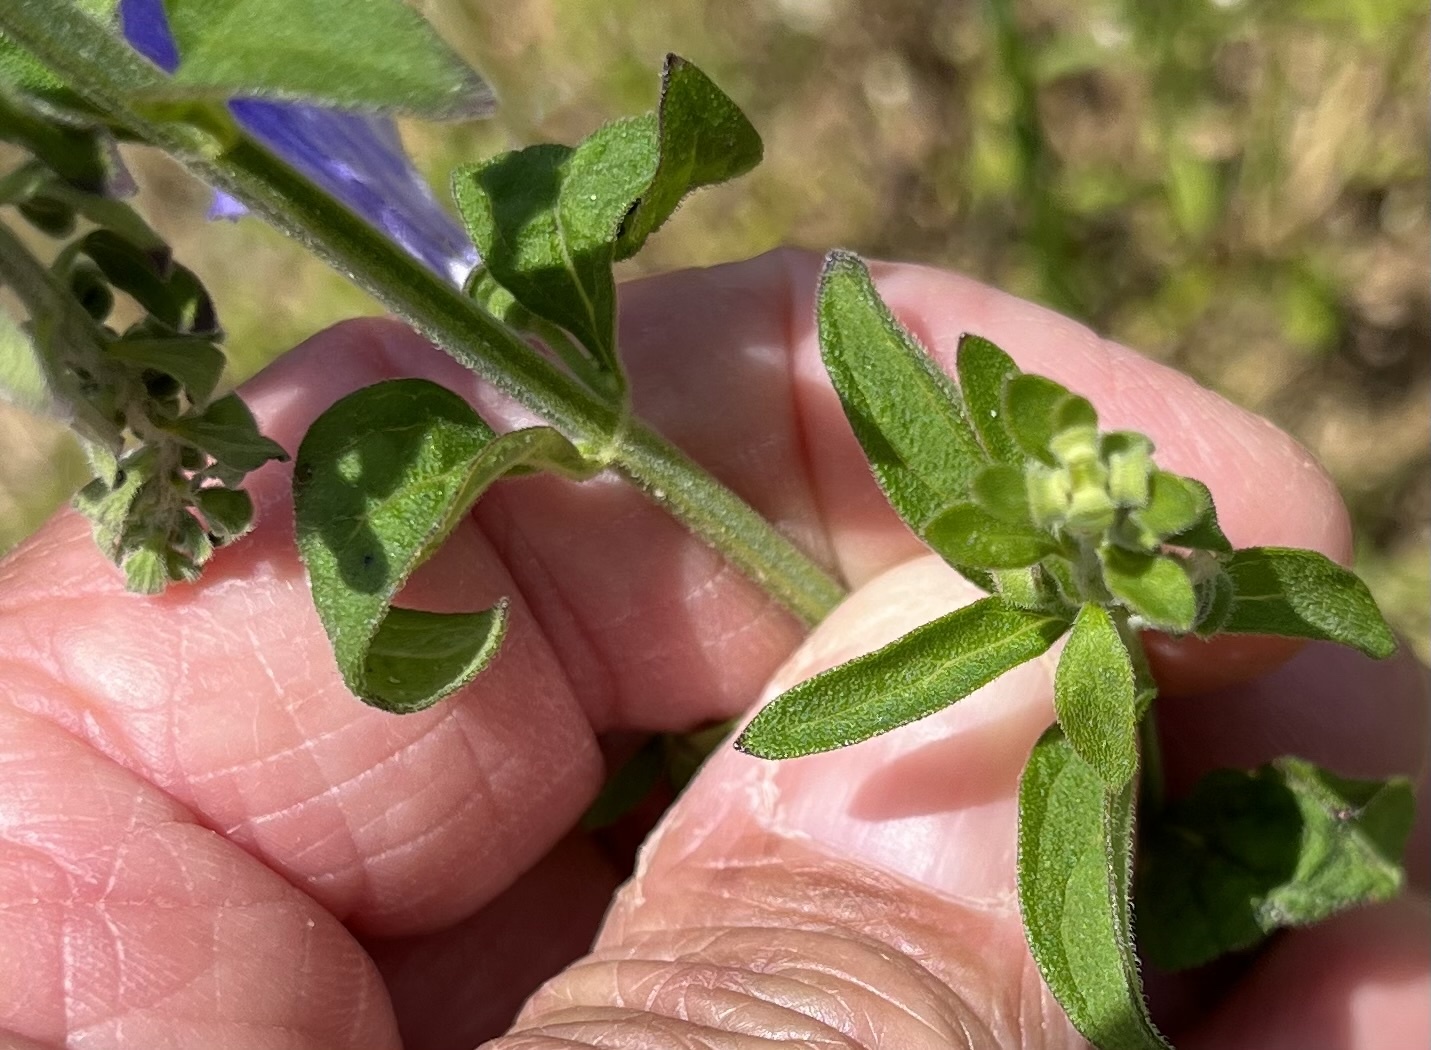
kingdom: Plantae
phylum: Tracheophyta
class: Magnoliopsida
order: Lamiales
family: Lamiaceae
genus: Scutellaria
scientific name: Scutellaria integrifolia
